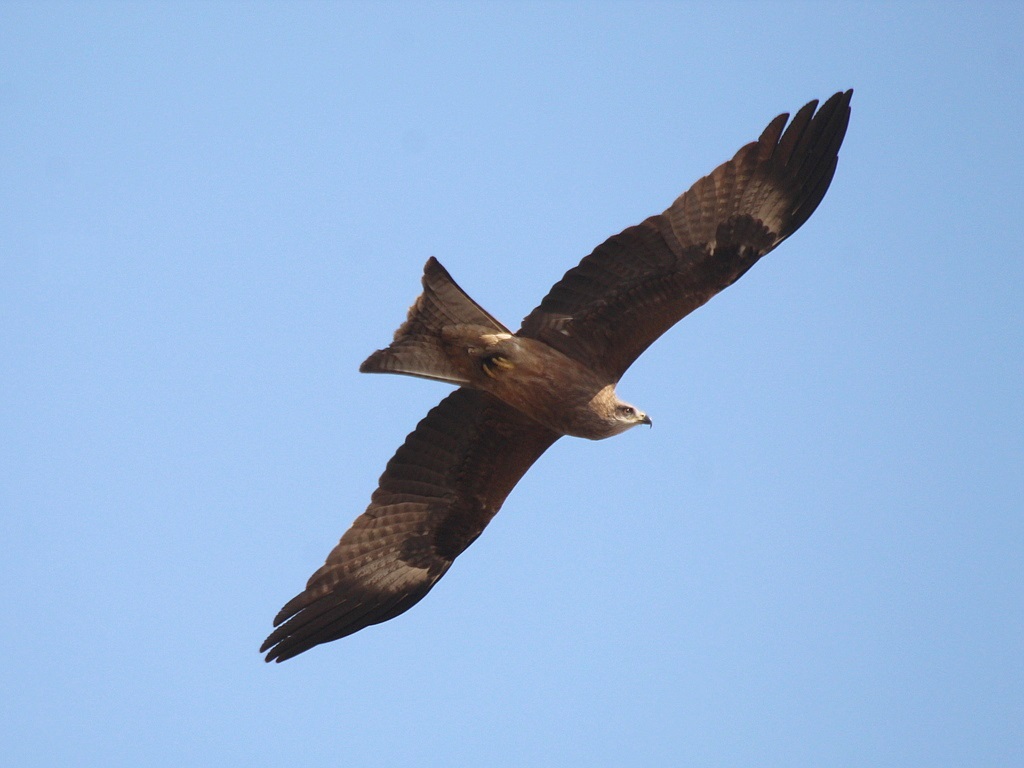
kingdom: Animalia
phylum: Chordata
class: Aves
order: Accipitriformes
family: Accipitridae
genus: Milvus
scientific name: Milvus migrans
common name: Black kite
